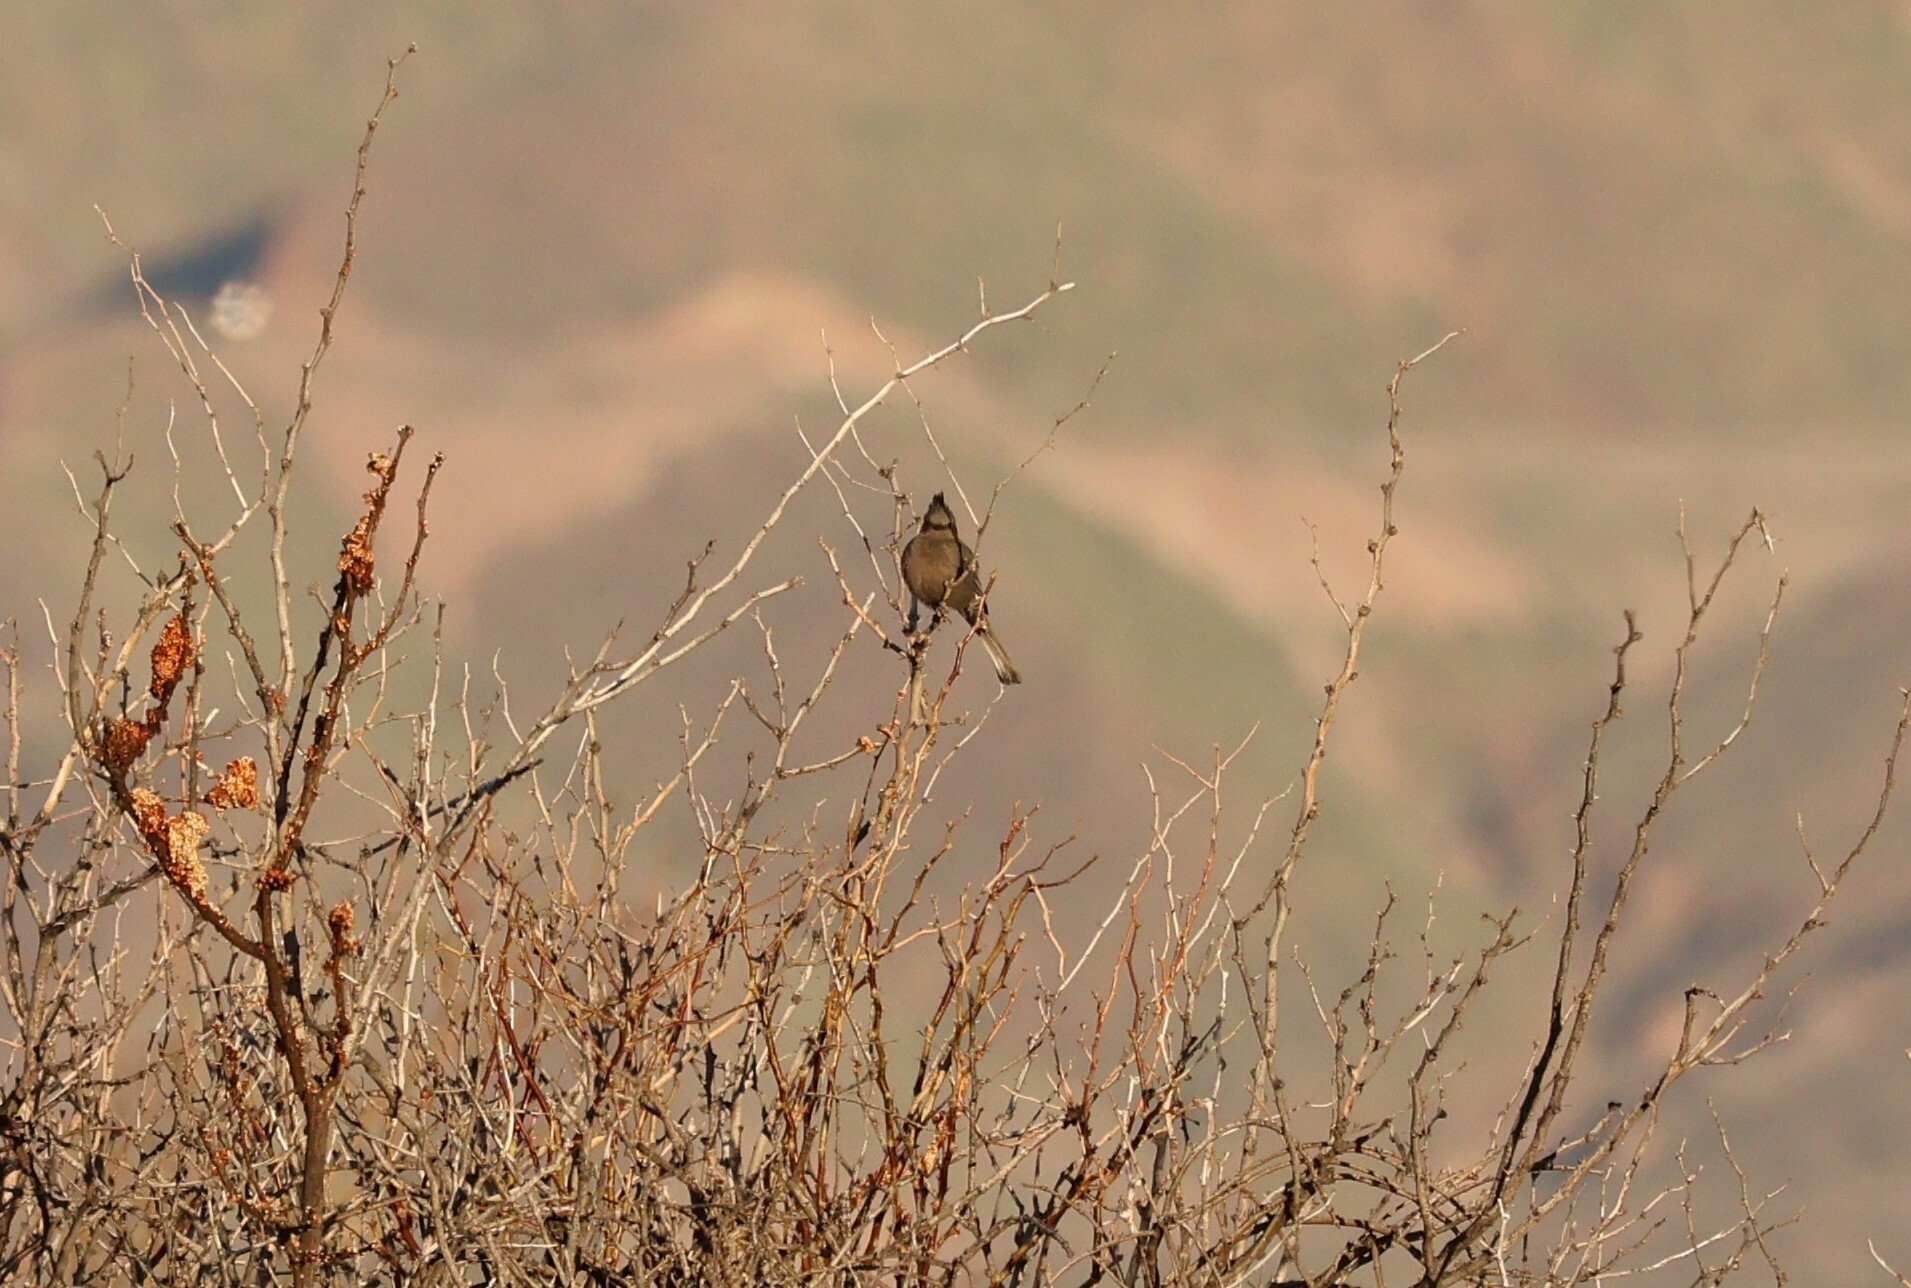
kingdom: Animalia
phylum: Chordata
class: Aves
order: Passeriformes
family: Ptilogonatidae
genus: Phainopepla
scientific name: Phainopepla nitens
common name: Phainopepla
